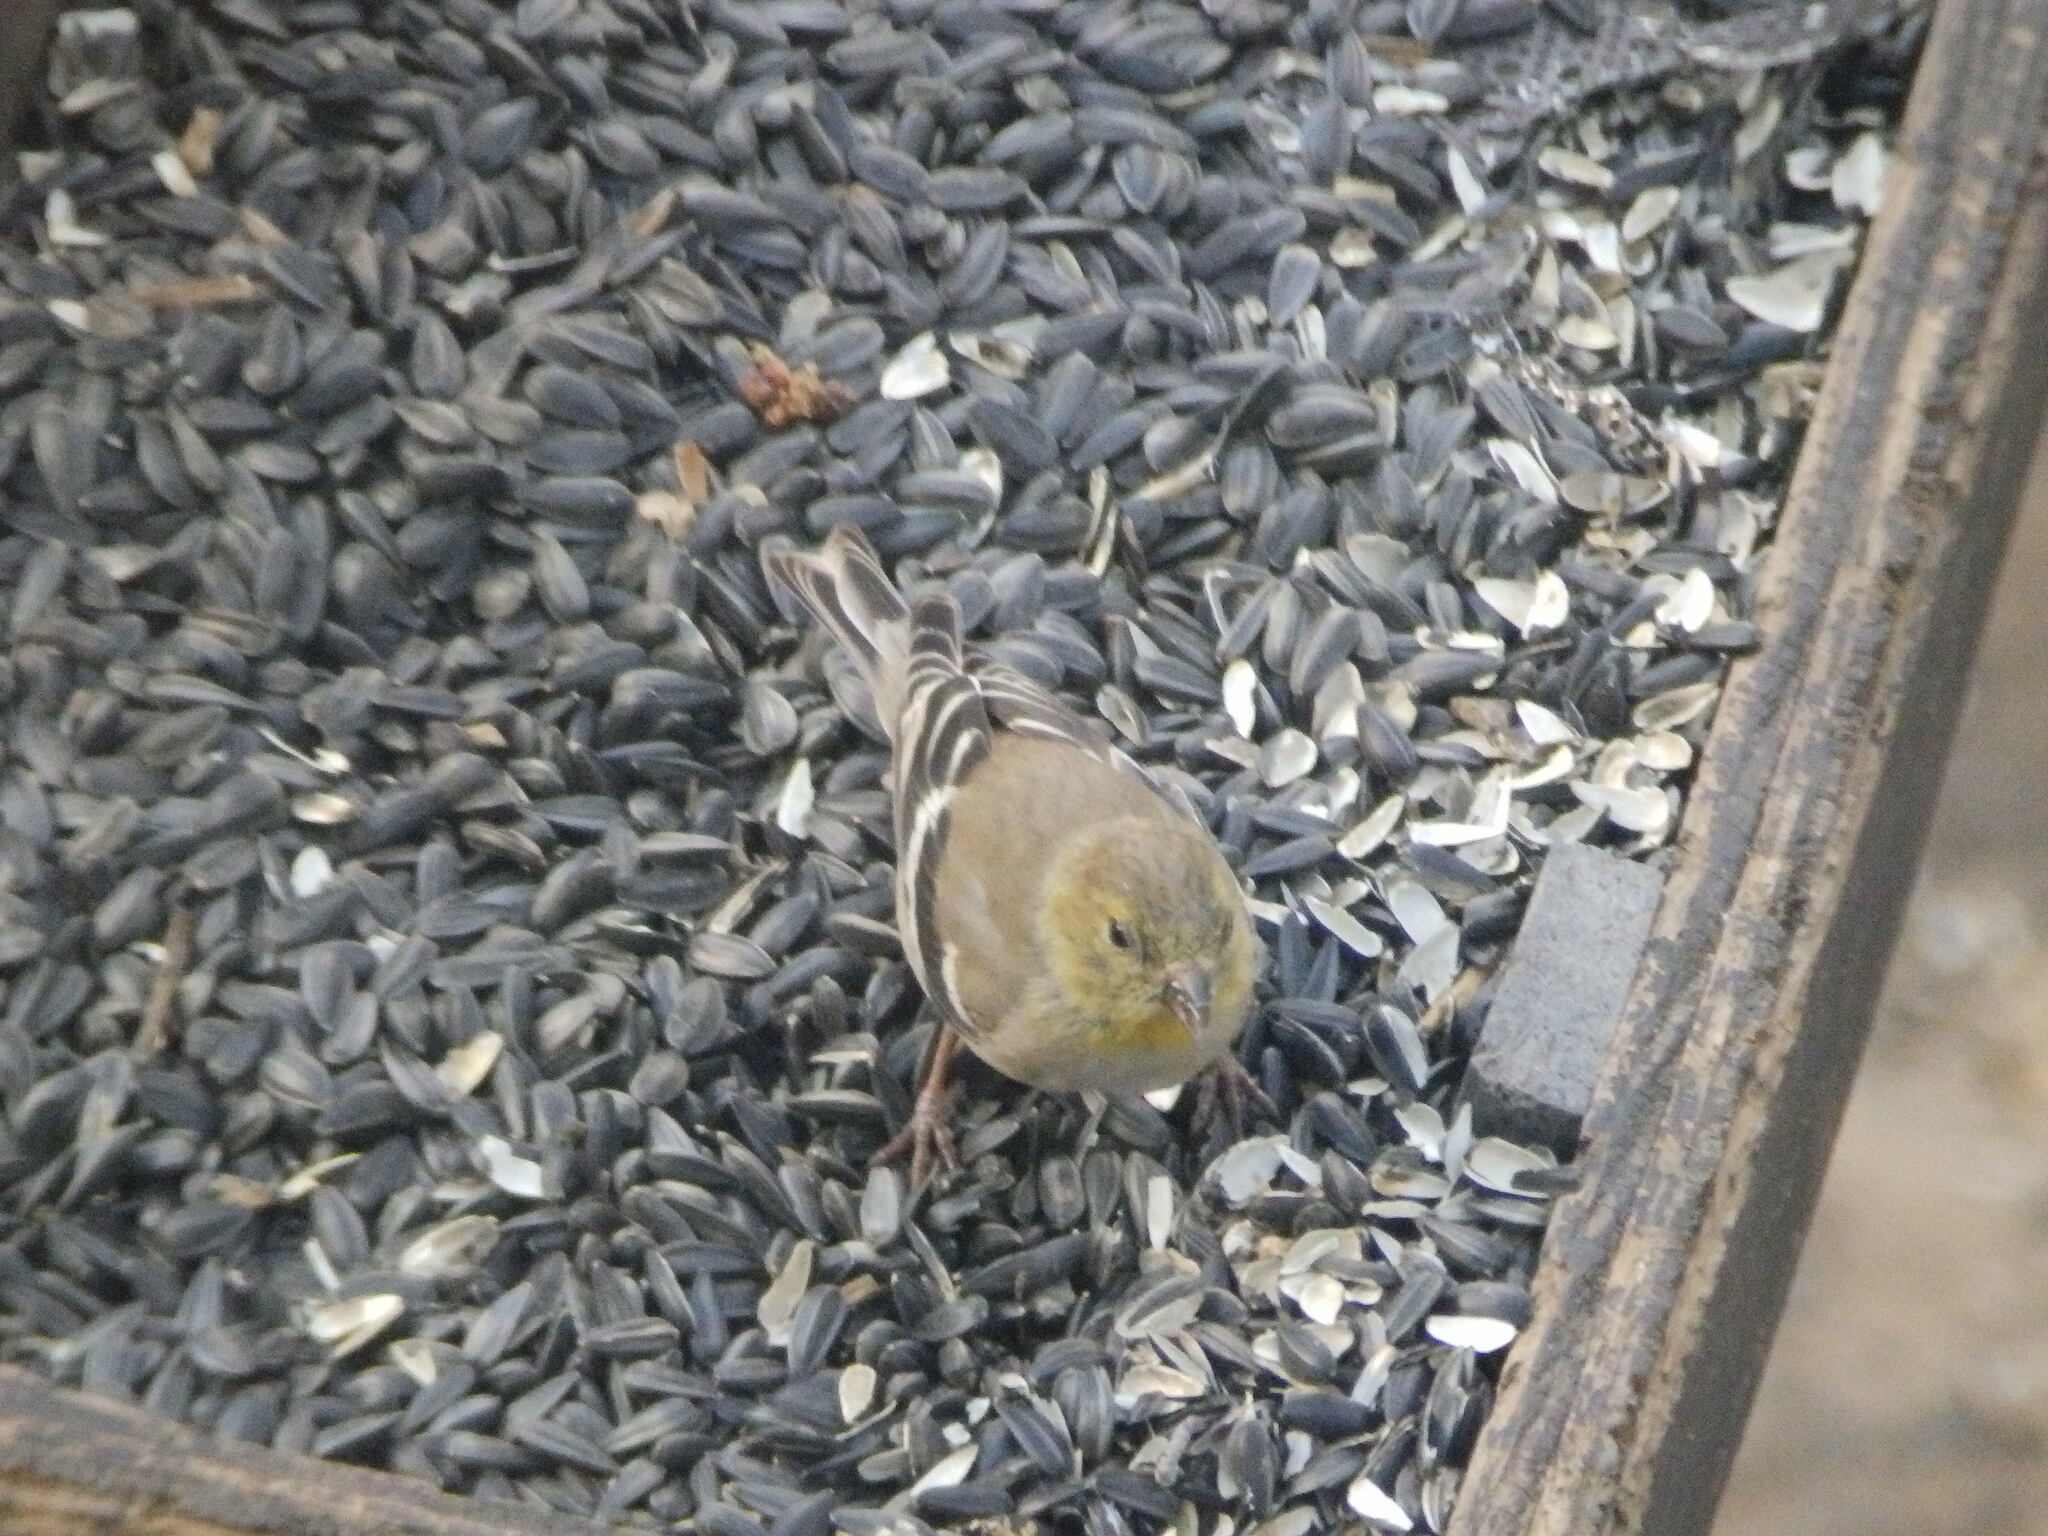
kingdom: Animalia
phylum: Chordata
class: Aves
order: Passeriformes
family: Fringillidae
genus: Spinus
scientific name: Spinus tristis
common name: American goldfinch
